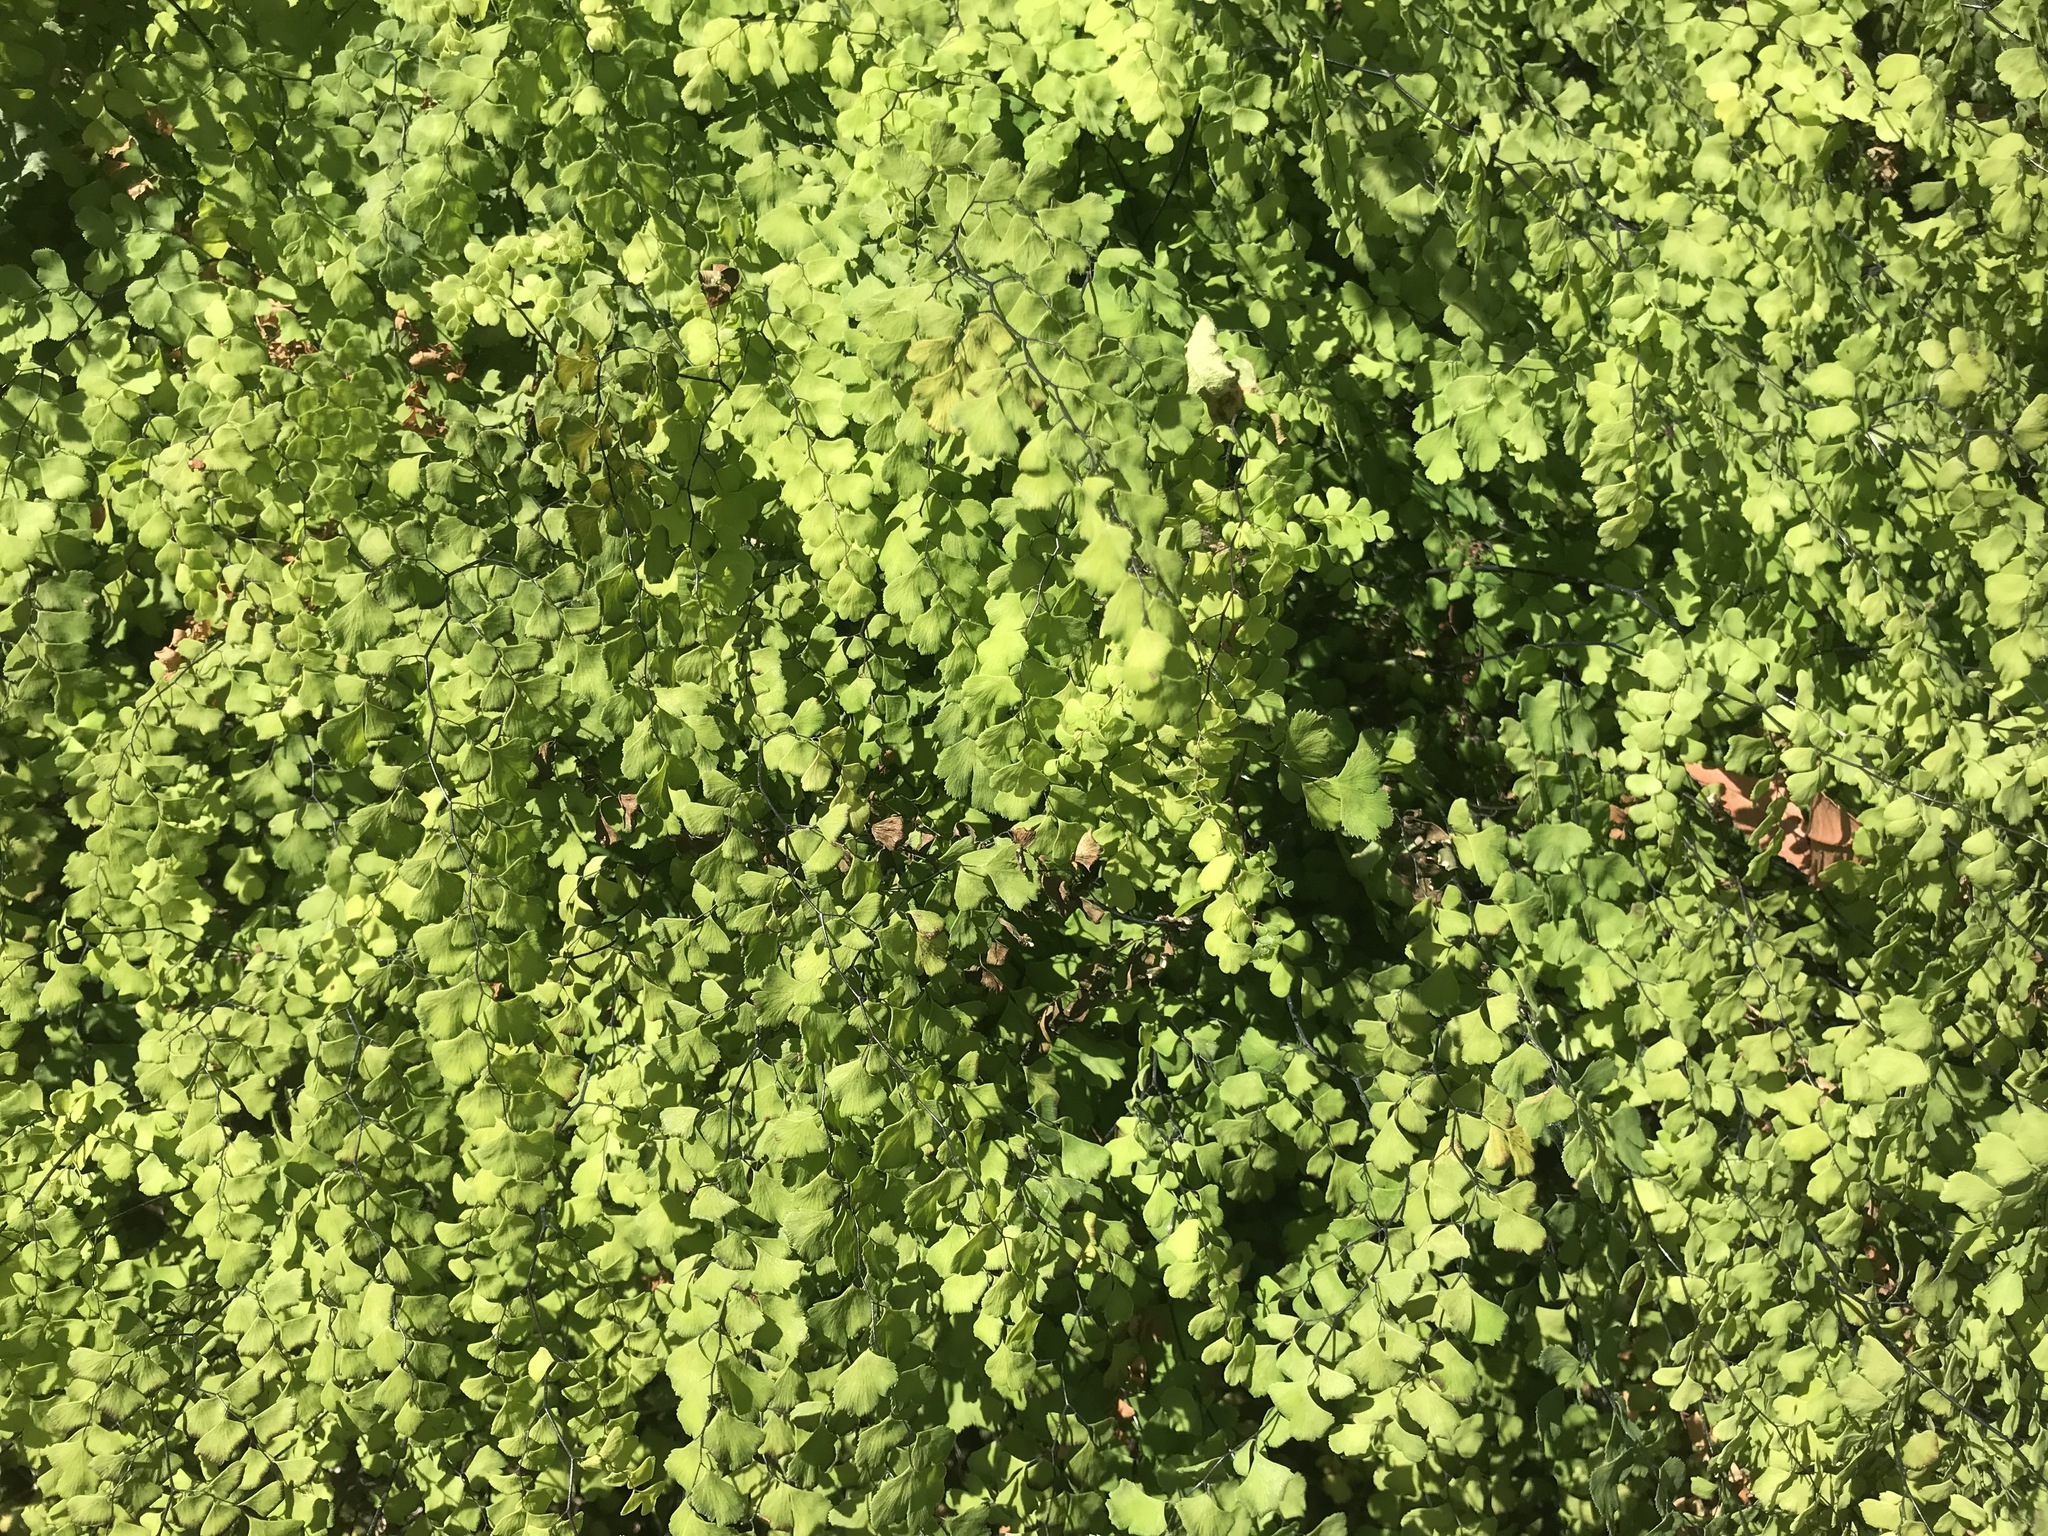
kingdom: Plantae
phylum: Tracheophyta
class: Polypodiopsida
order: Polypodiales
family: Pteridaceae
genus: Adiantum
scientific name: Adiantum capillus-veneris
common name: Maidenhair fern
